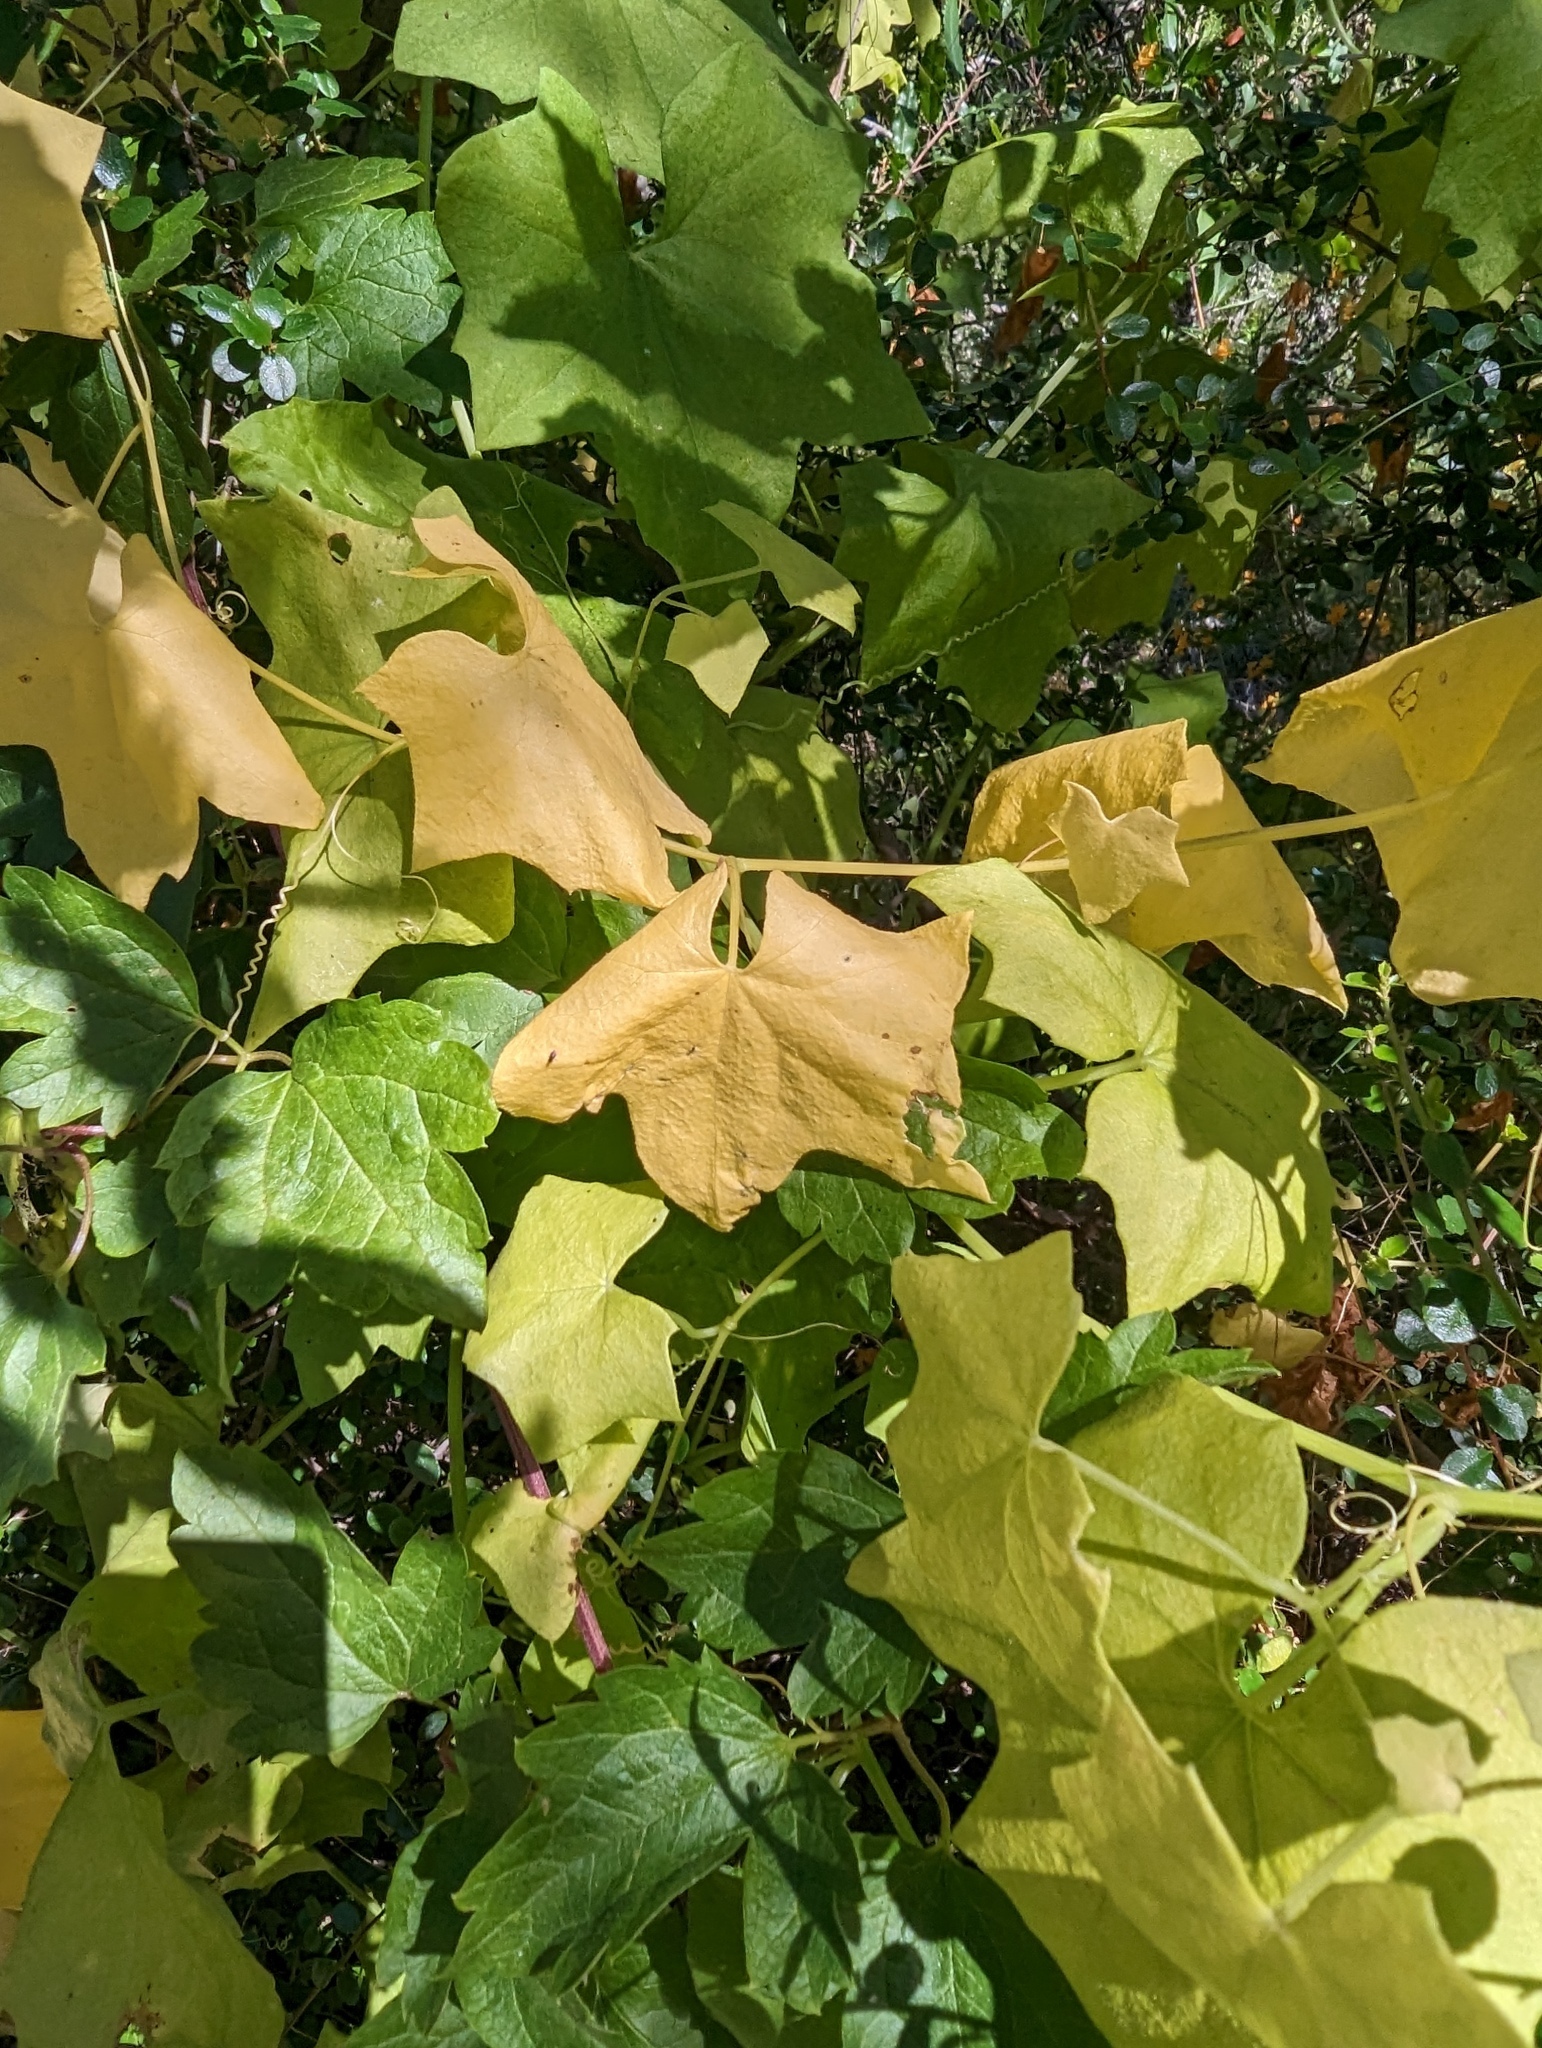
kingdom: Plantae
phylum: Tracheophyta
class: Magnoliopsida
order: Cucurbitales
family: Cucurbitaceae
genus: Marah
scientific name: Marah fabacea
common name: California manroot
